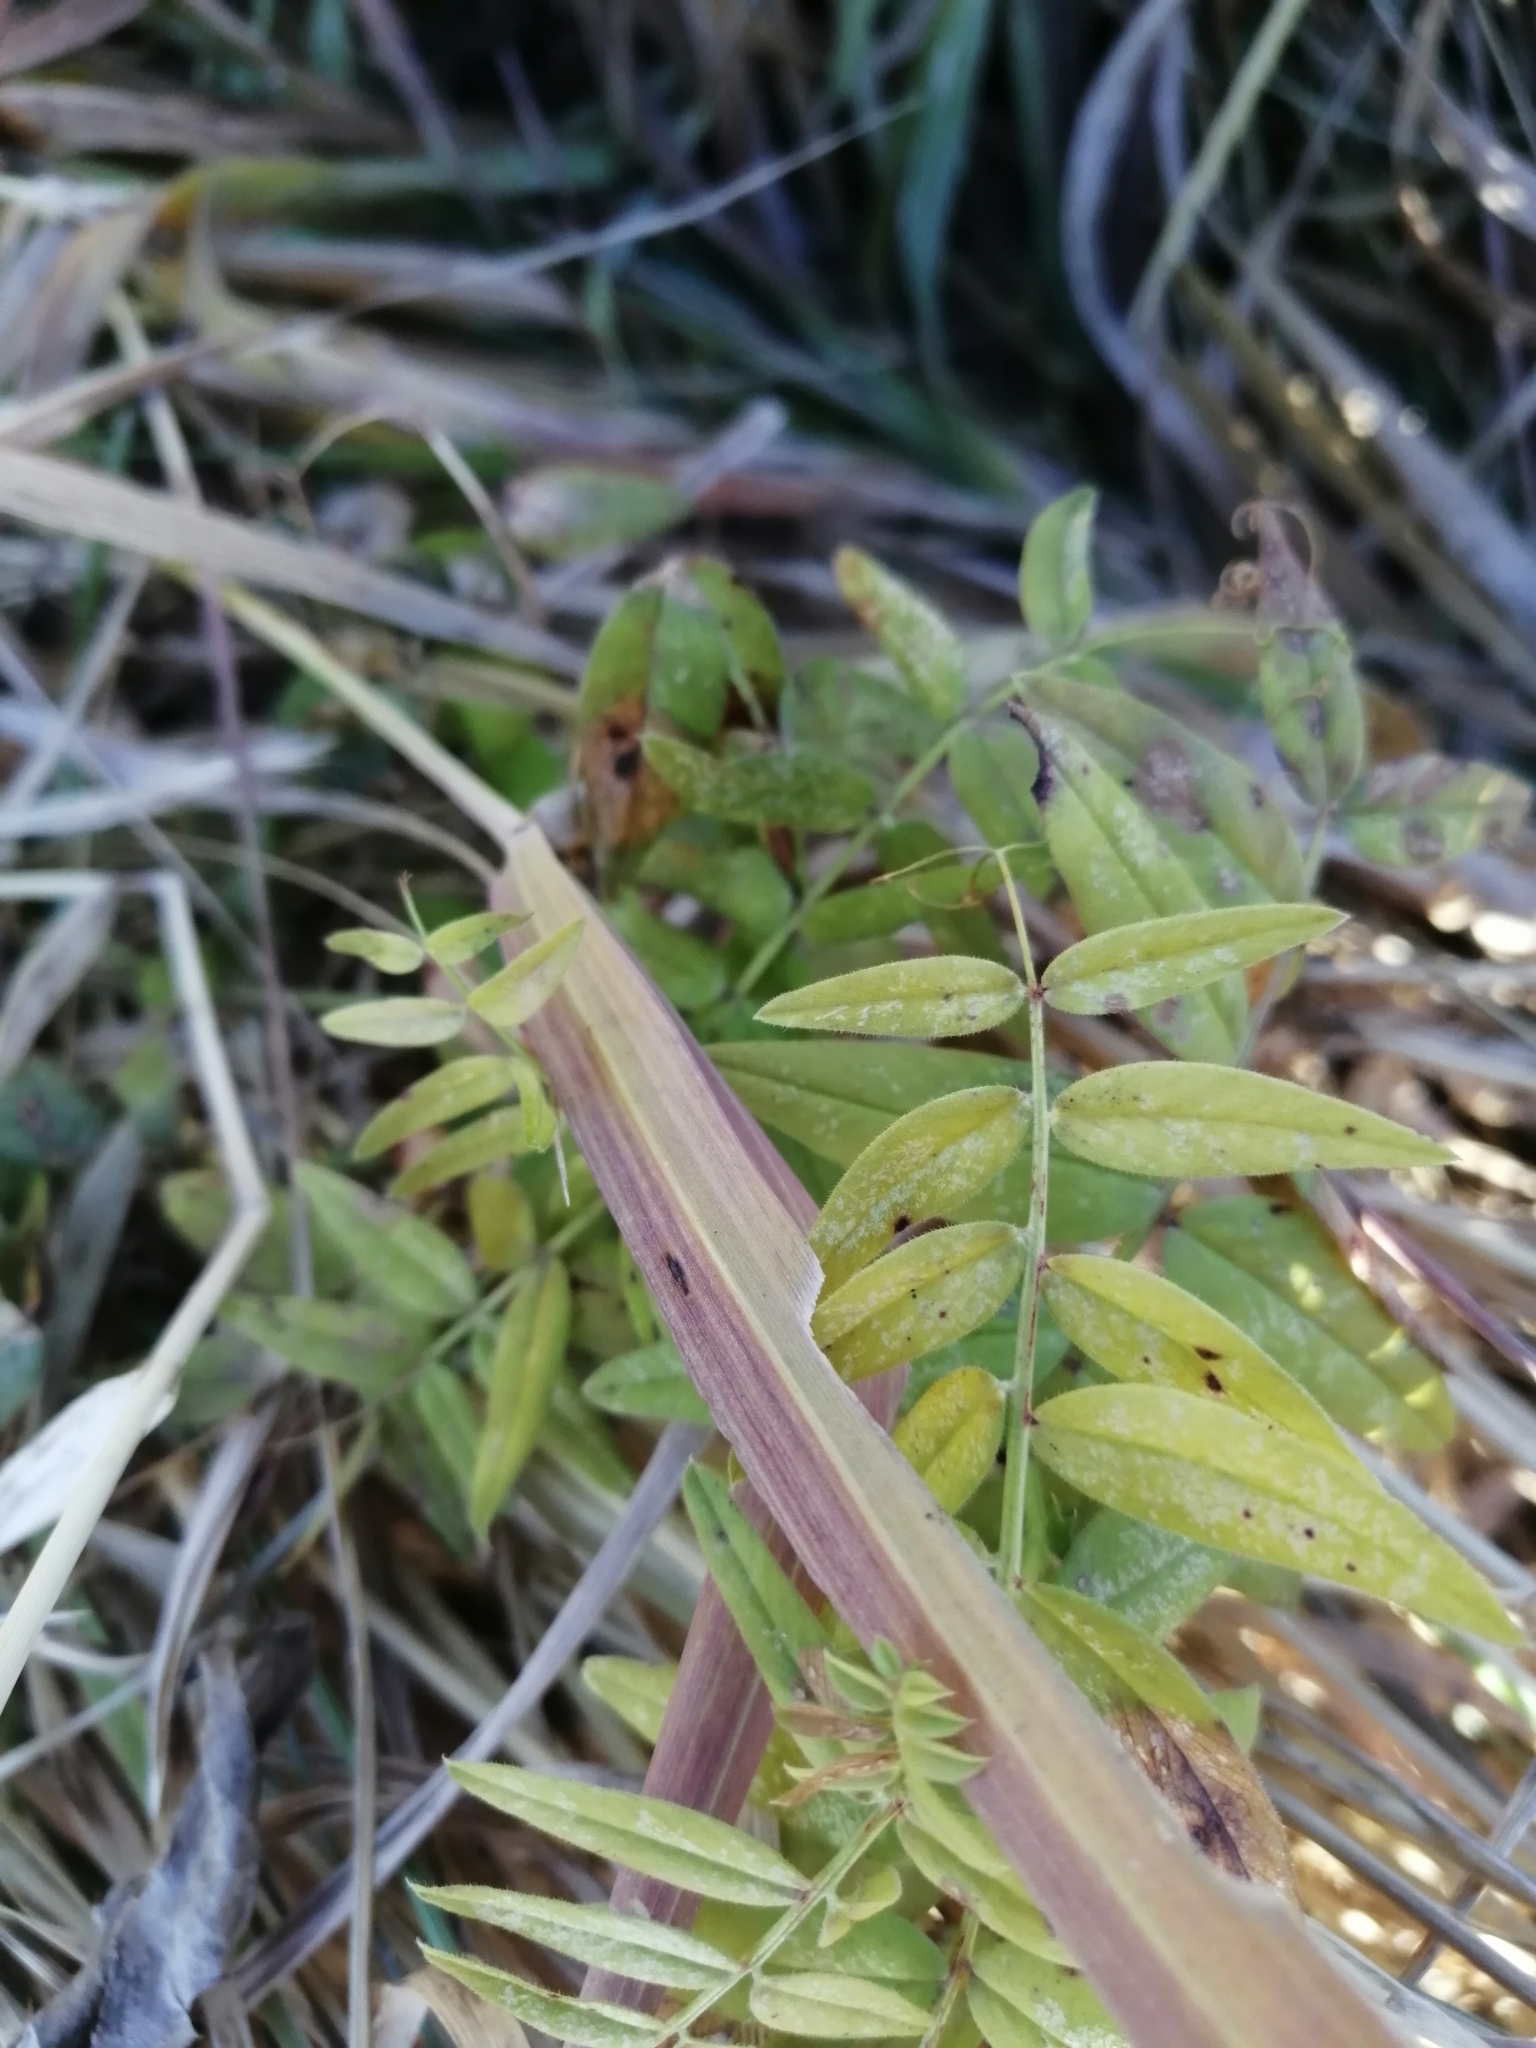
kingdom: Plantae
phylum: Tracheophyta
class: Magnoliopsida
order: Fabales
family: Fabaceae
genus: Vicia
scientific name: Vicia sepium
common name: Bush vetch
